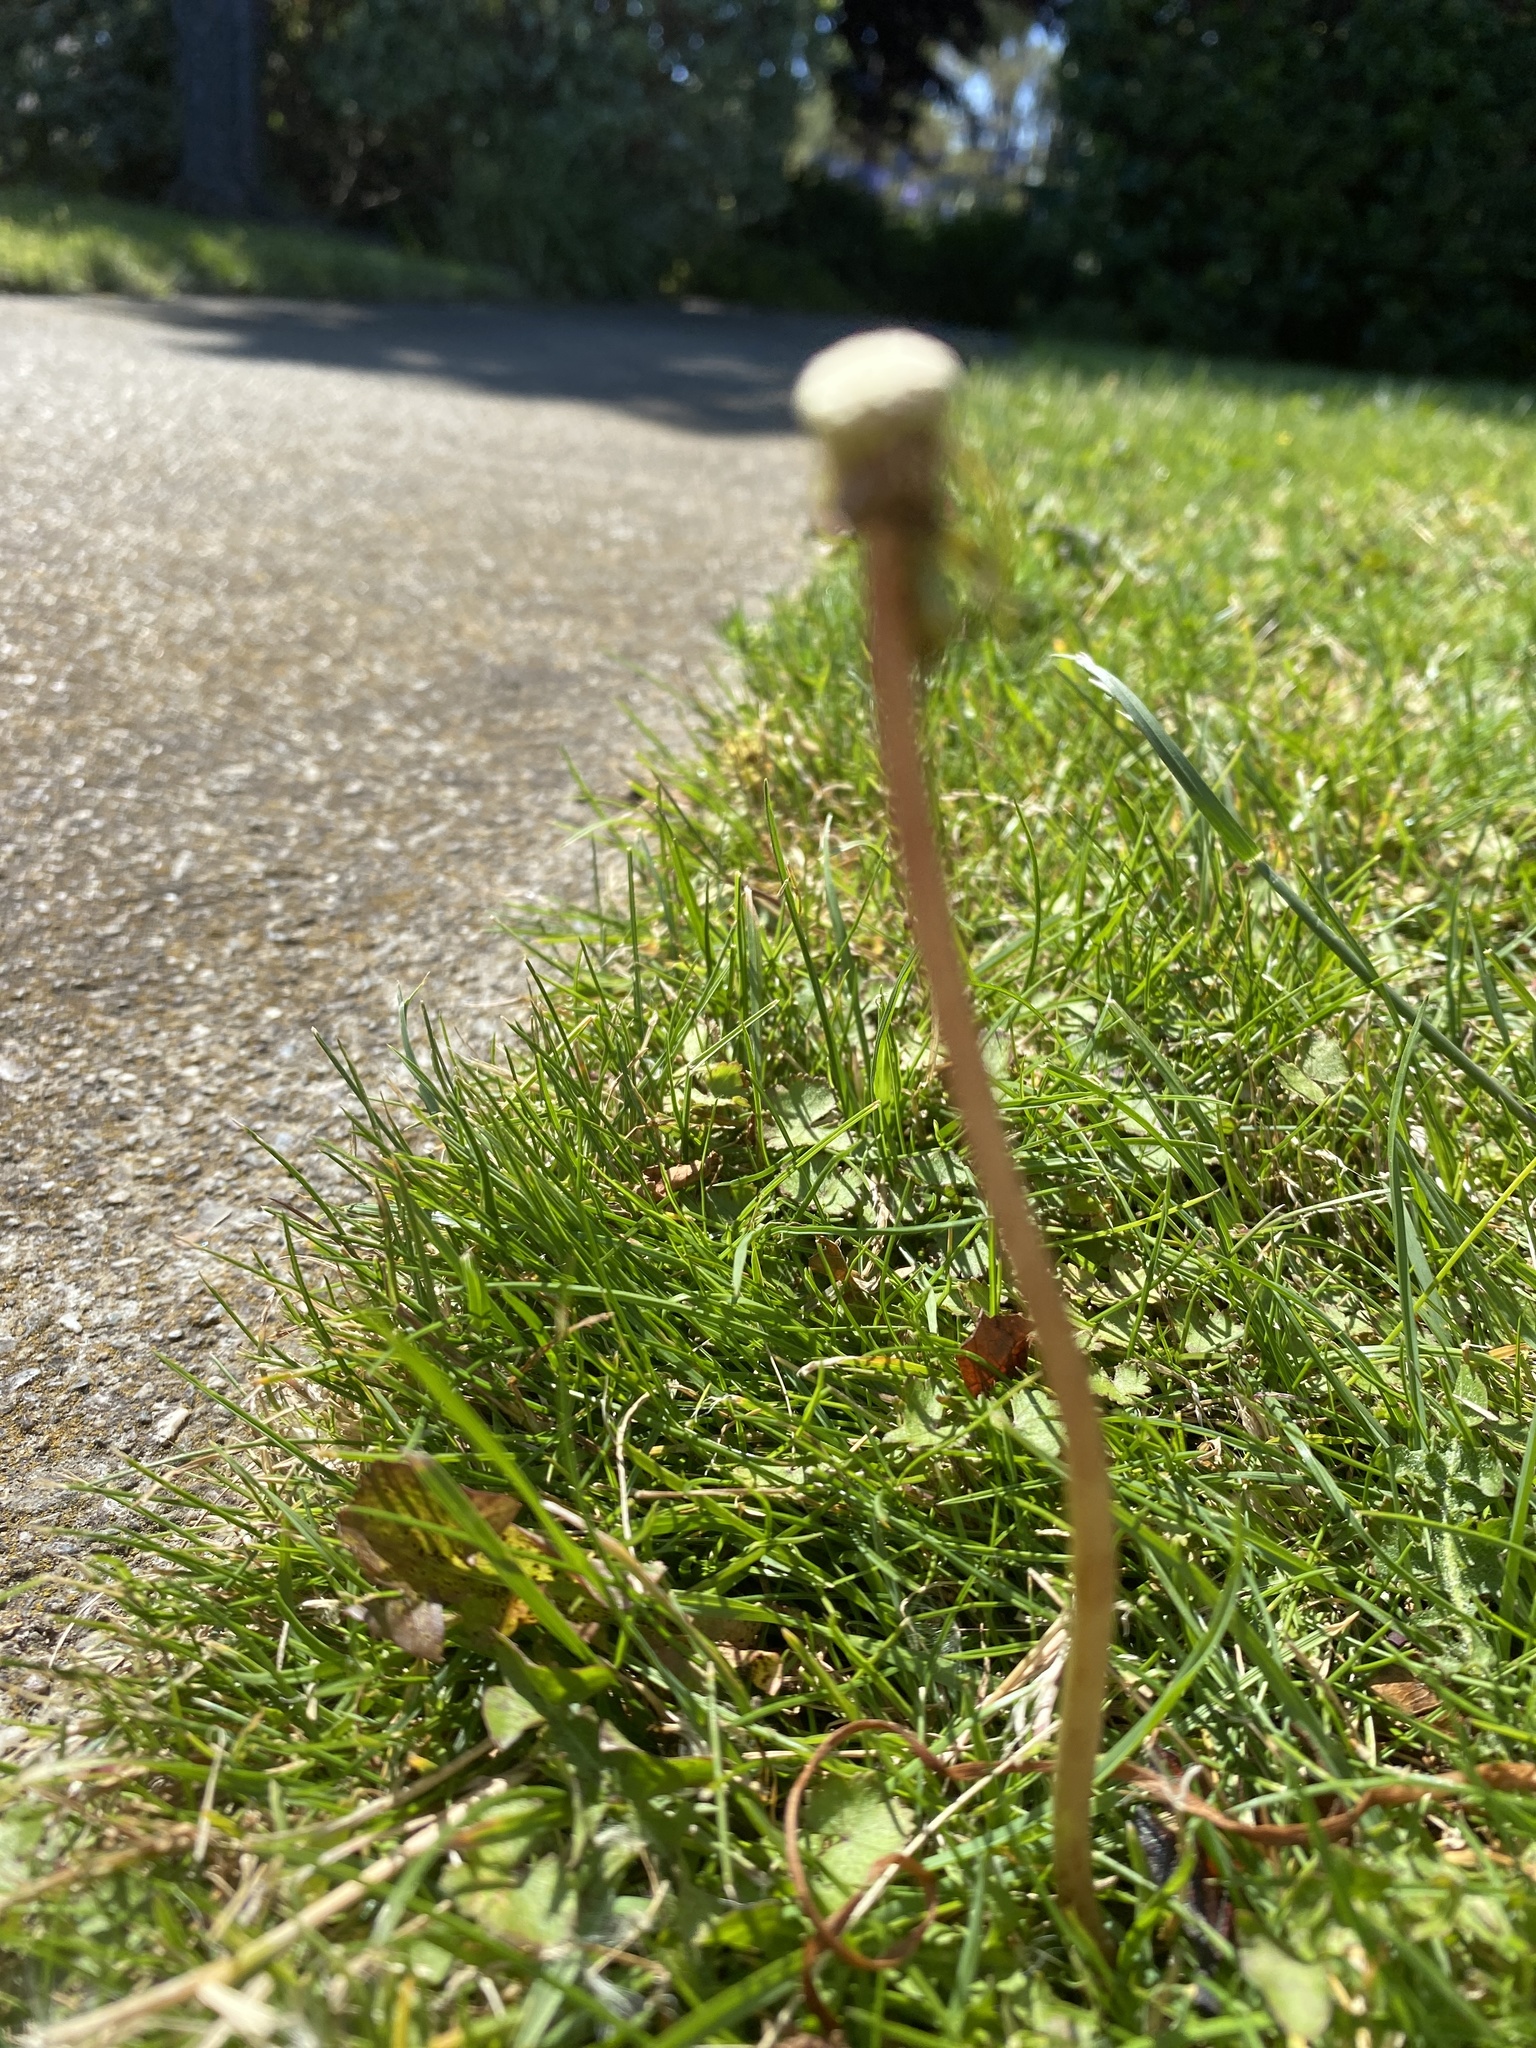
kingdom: Plantae
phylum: Tracheophyta
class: Magnoliopsida
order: Asterales
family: Asteraceae
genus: Taraxacum
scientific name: Taraxacum officinale
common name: Common dandelion
